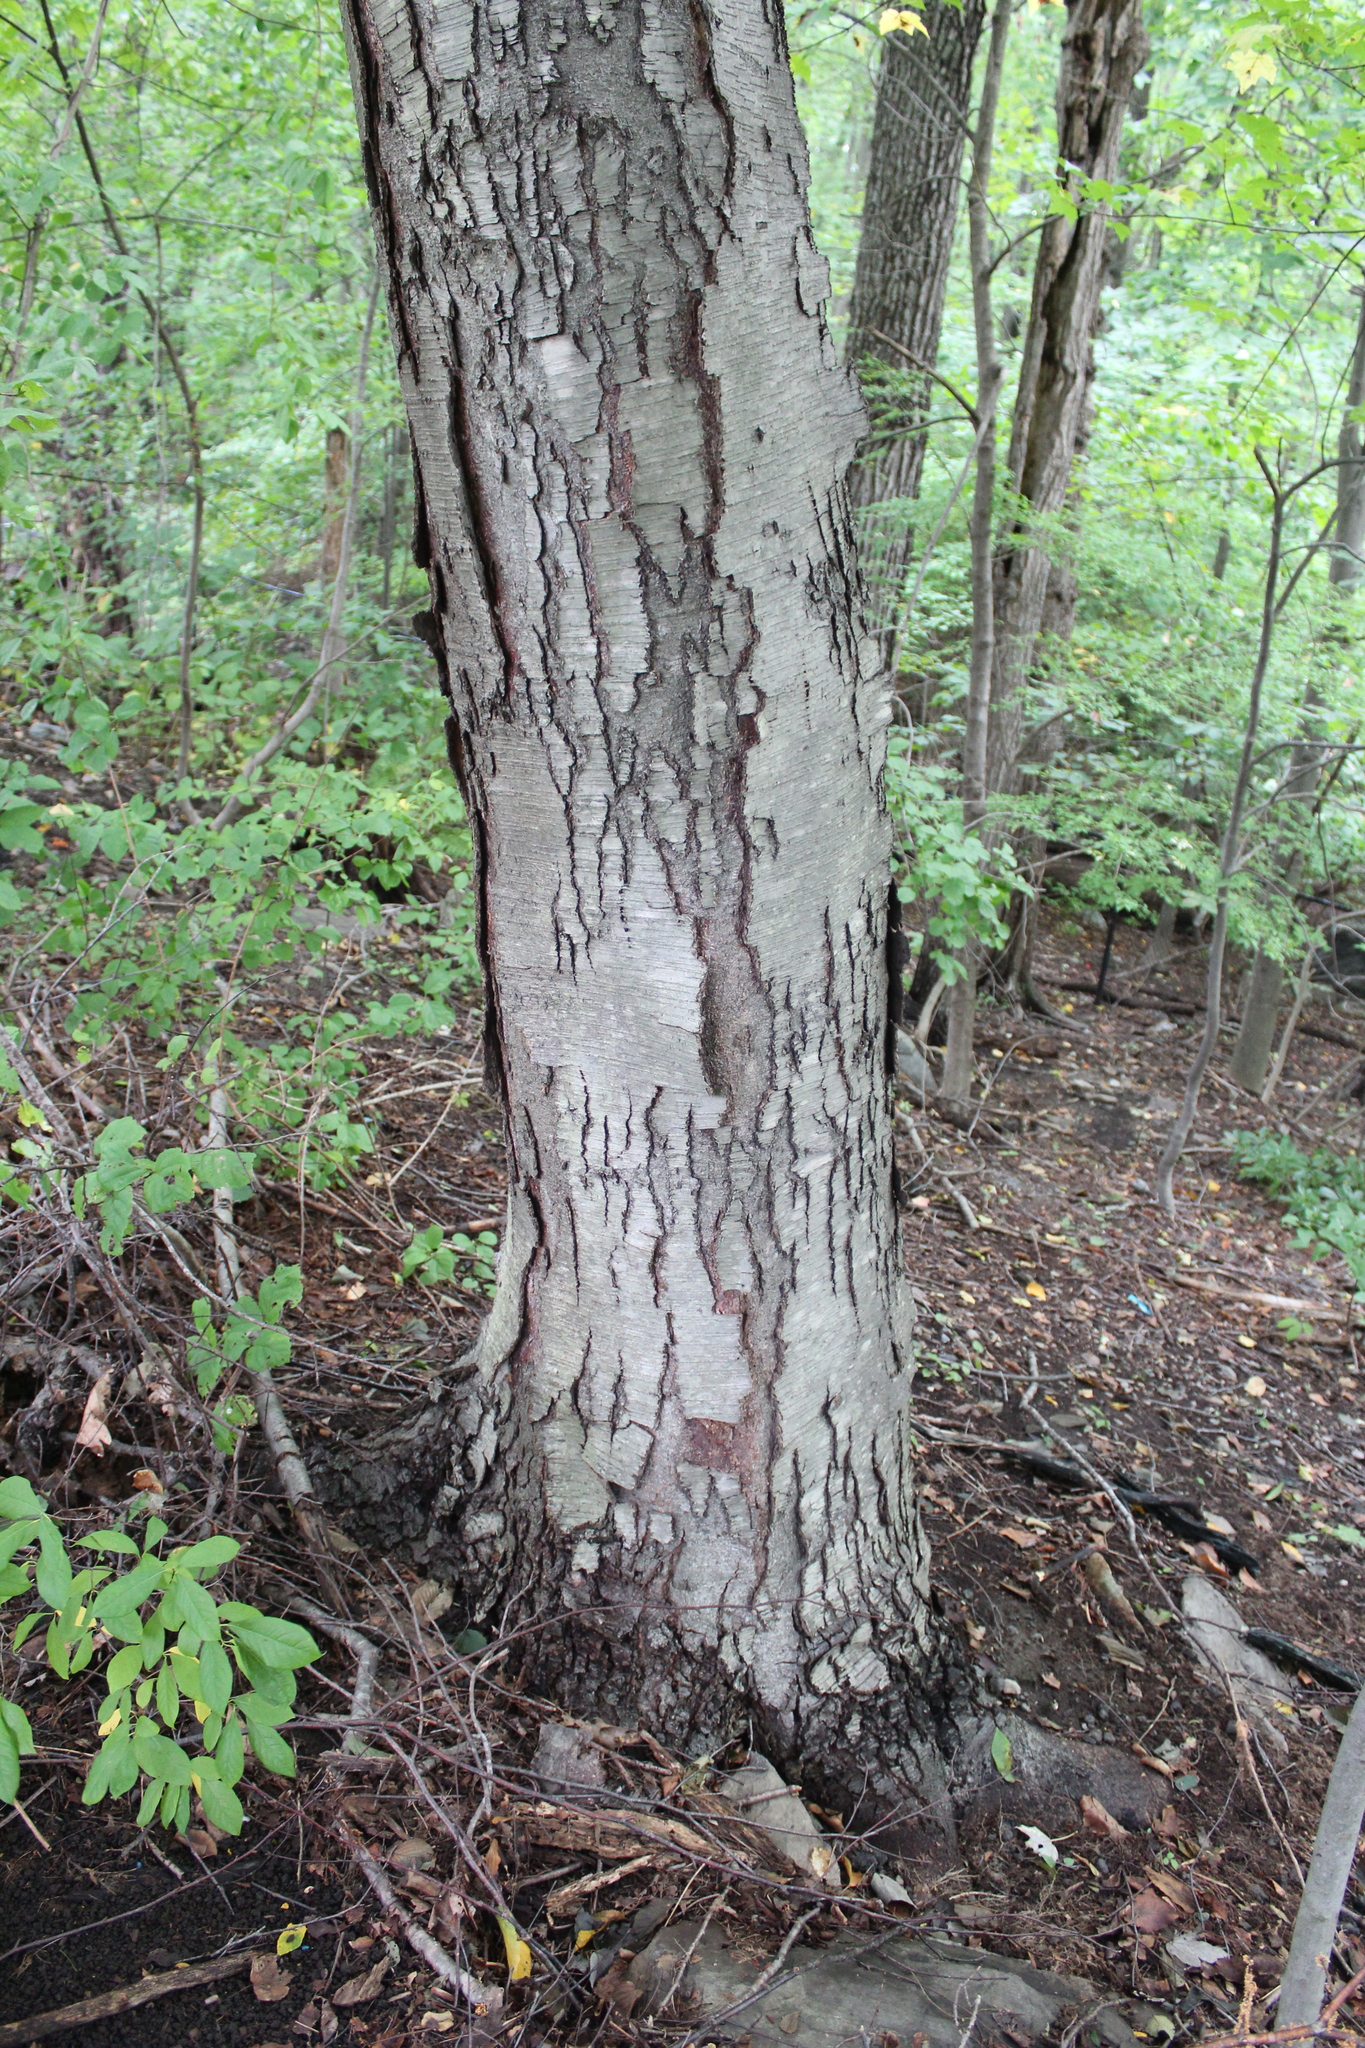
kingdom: Plantae
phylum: Tracheophyta
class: Magnoliopsida
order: Fagales
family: Betulaceae
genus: Betula
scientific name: Betula lenta
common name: Black birch
